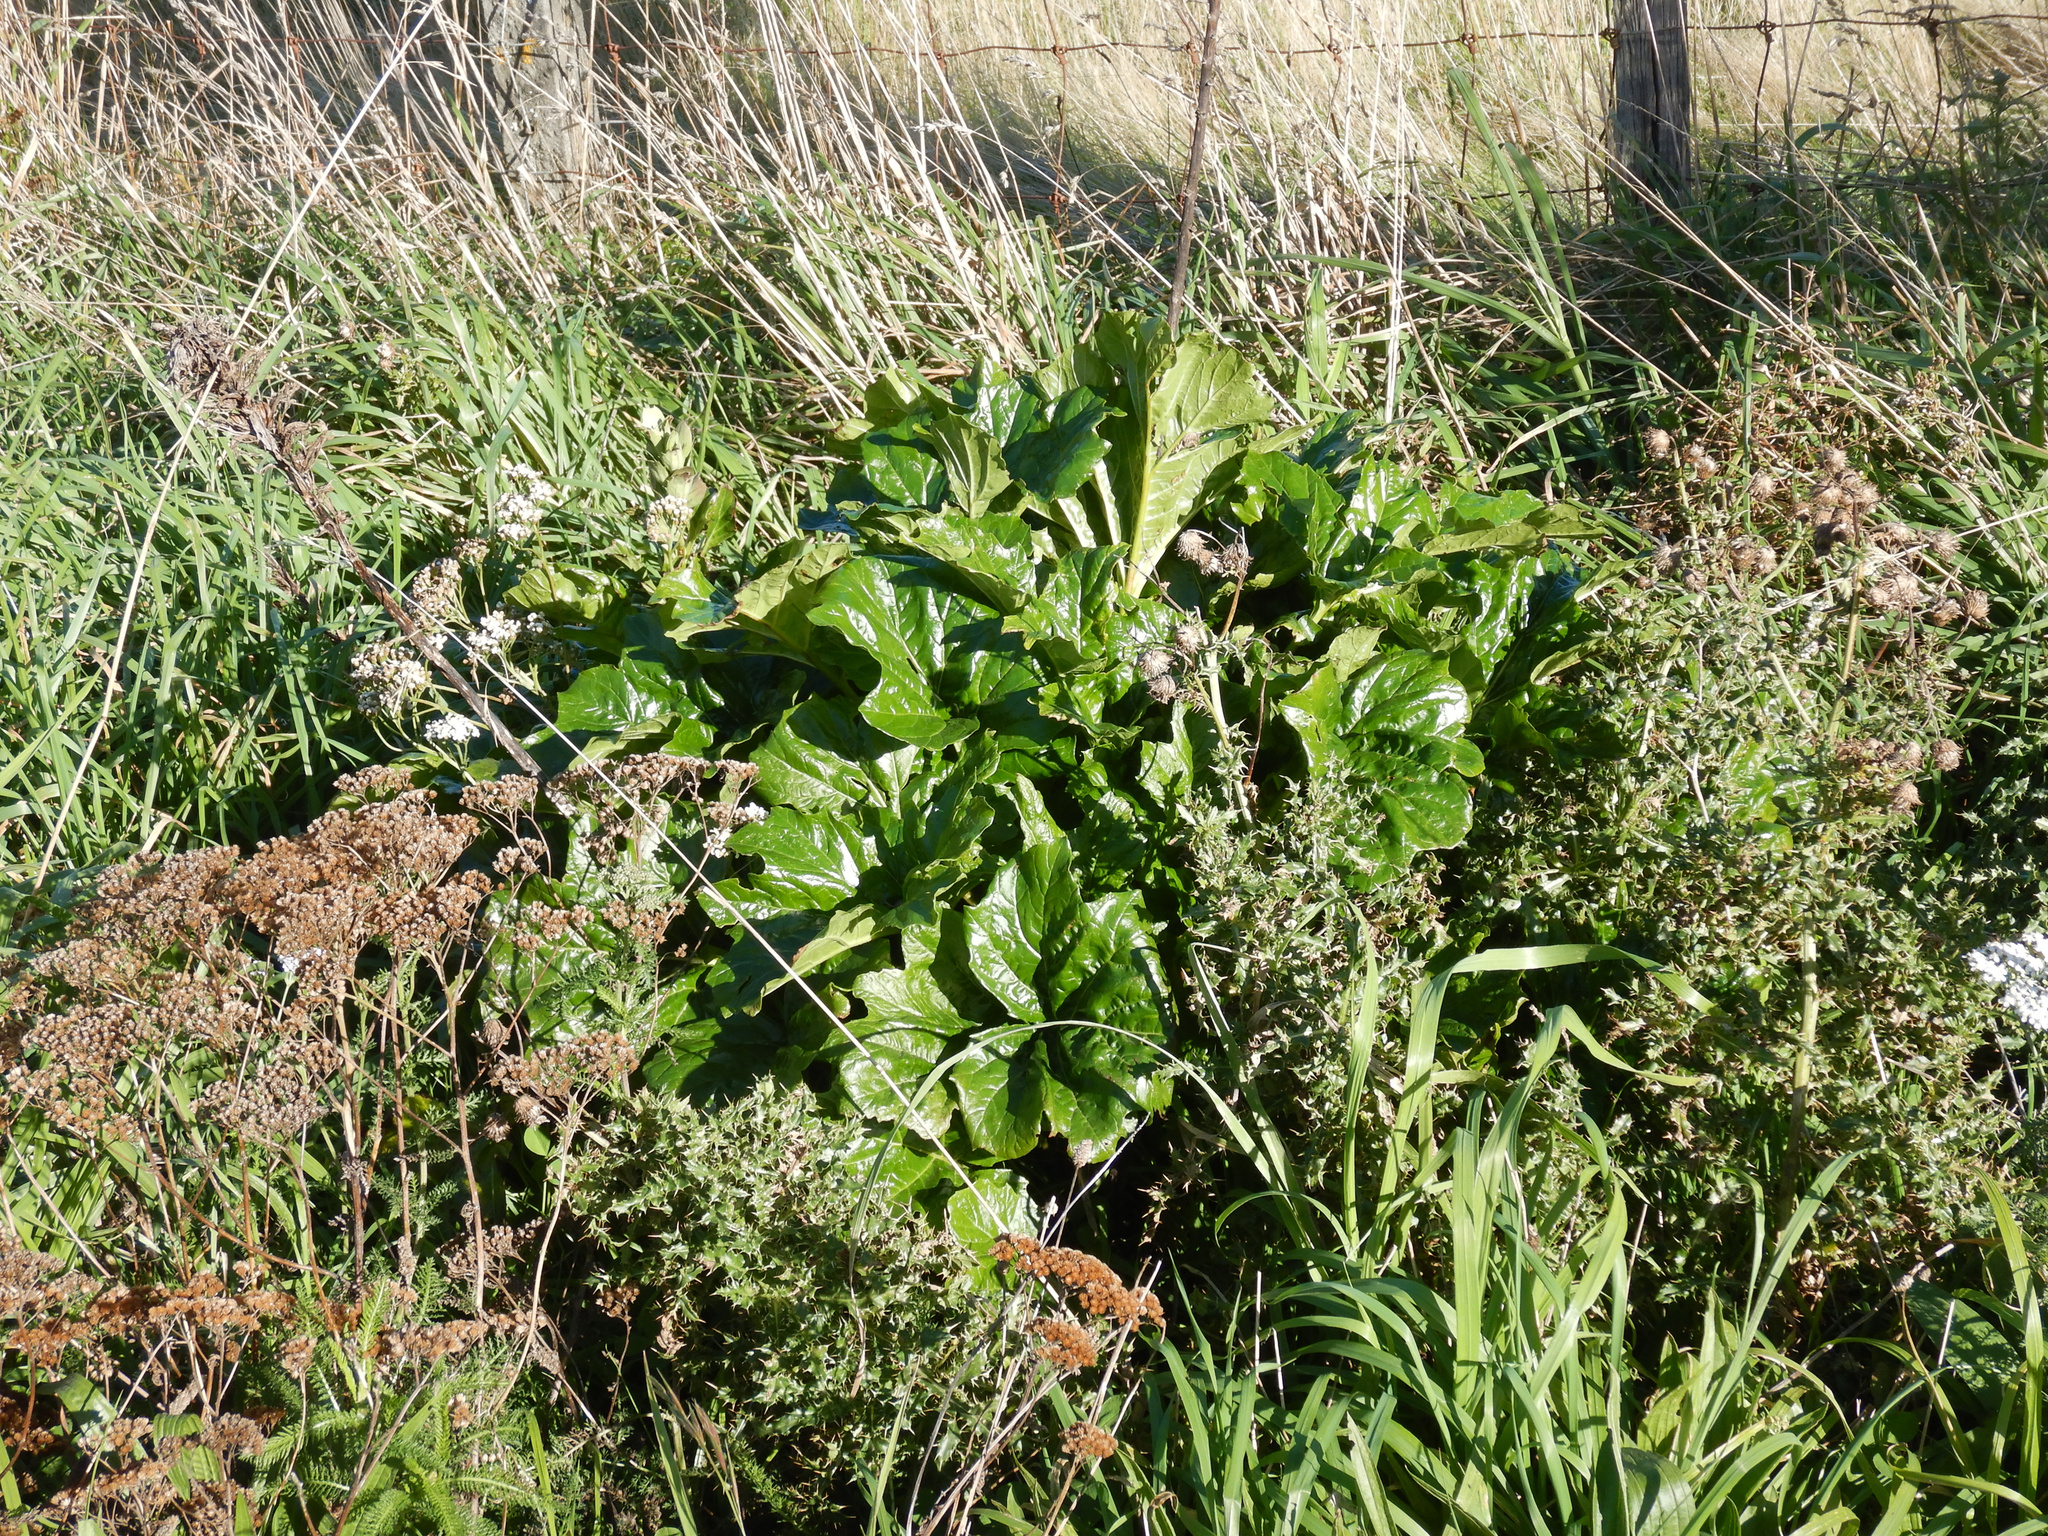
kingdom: Plantae
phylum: Tracheophyta
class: Magnoliopsida
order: Asterales
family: Asteraceae
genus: Achillea
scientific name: Achillea millefolium
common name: Yarrow
